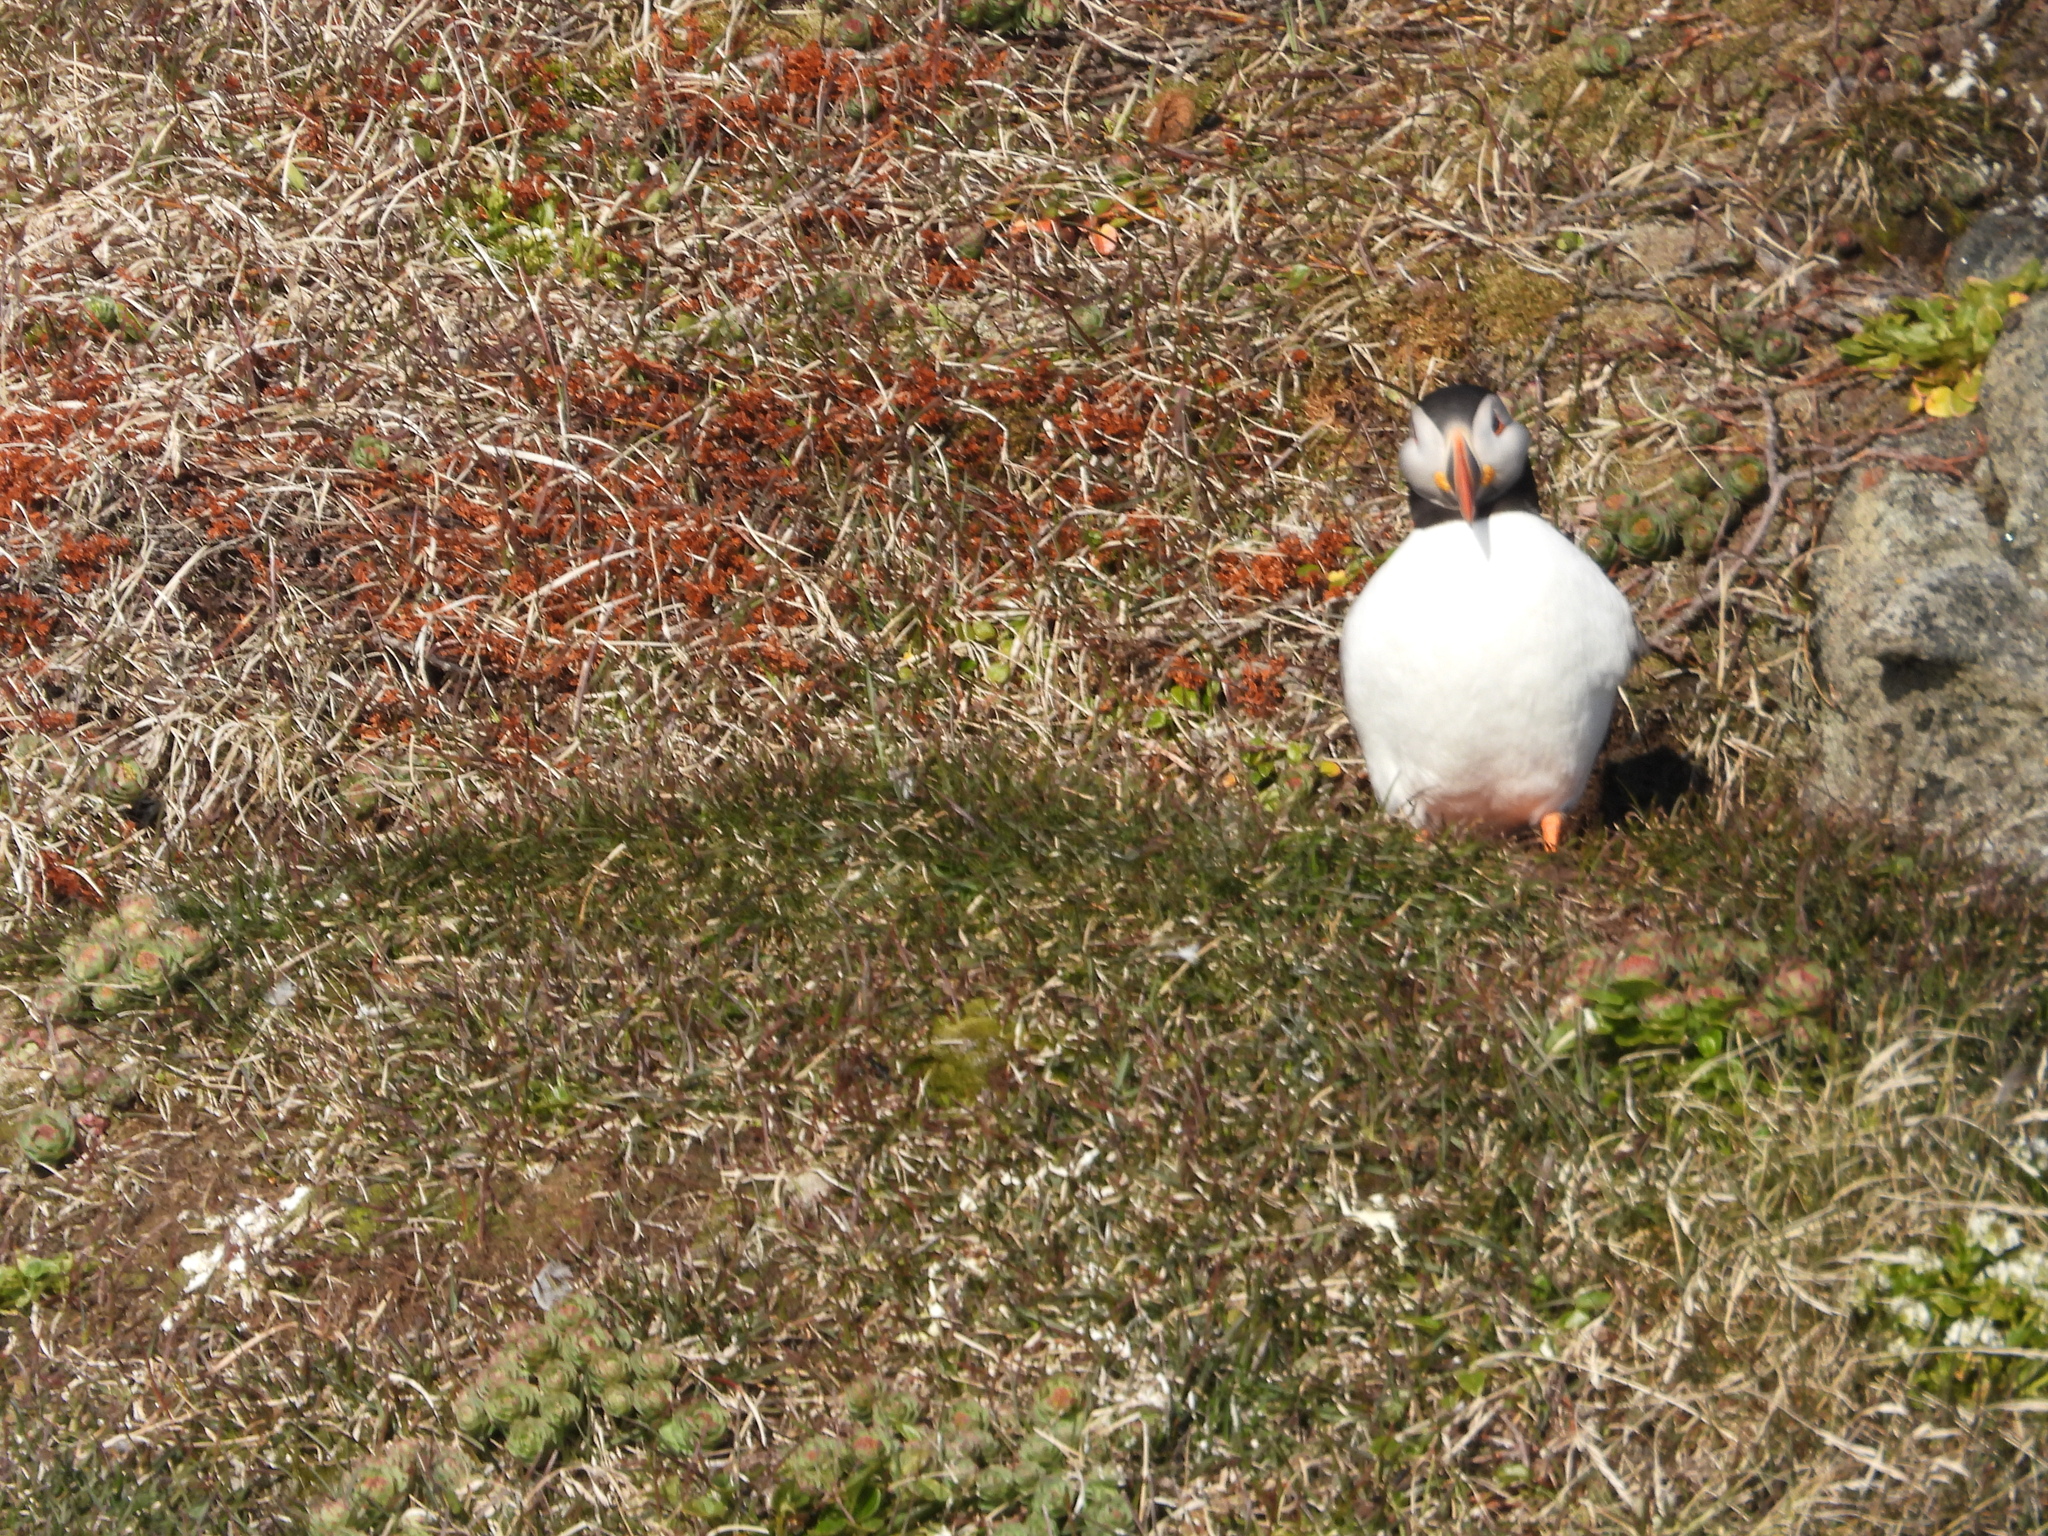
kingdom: Animalia
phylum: Chordata
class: Aves
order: Charadriiformes
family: Alcidae
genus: Fratercula
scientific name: Fratercula arctica
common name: Atlantic puffin
